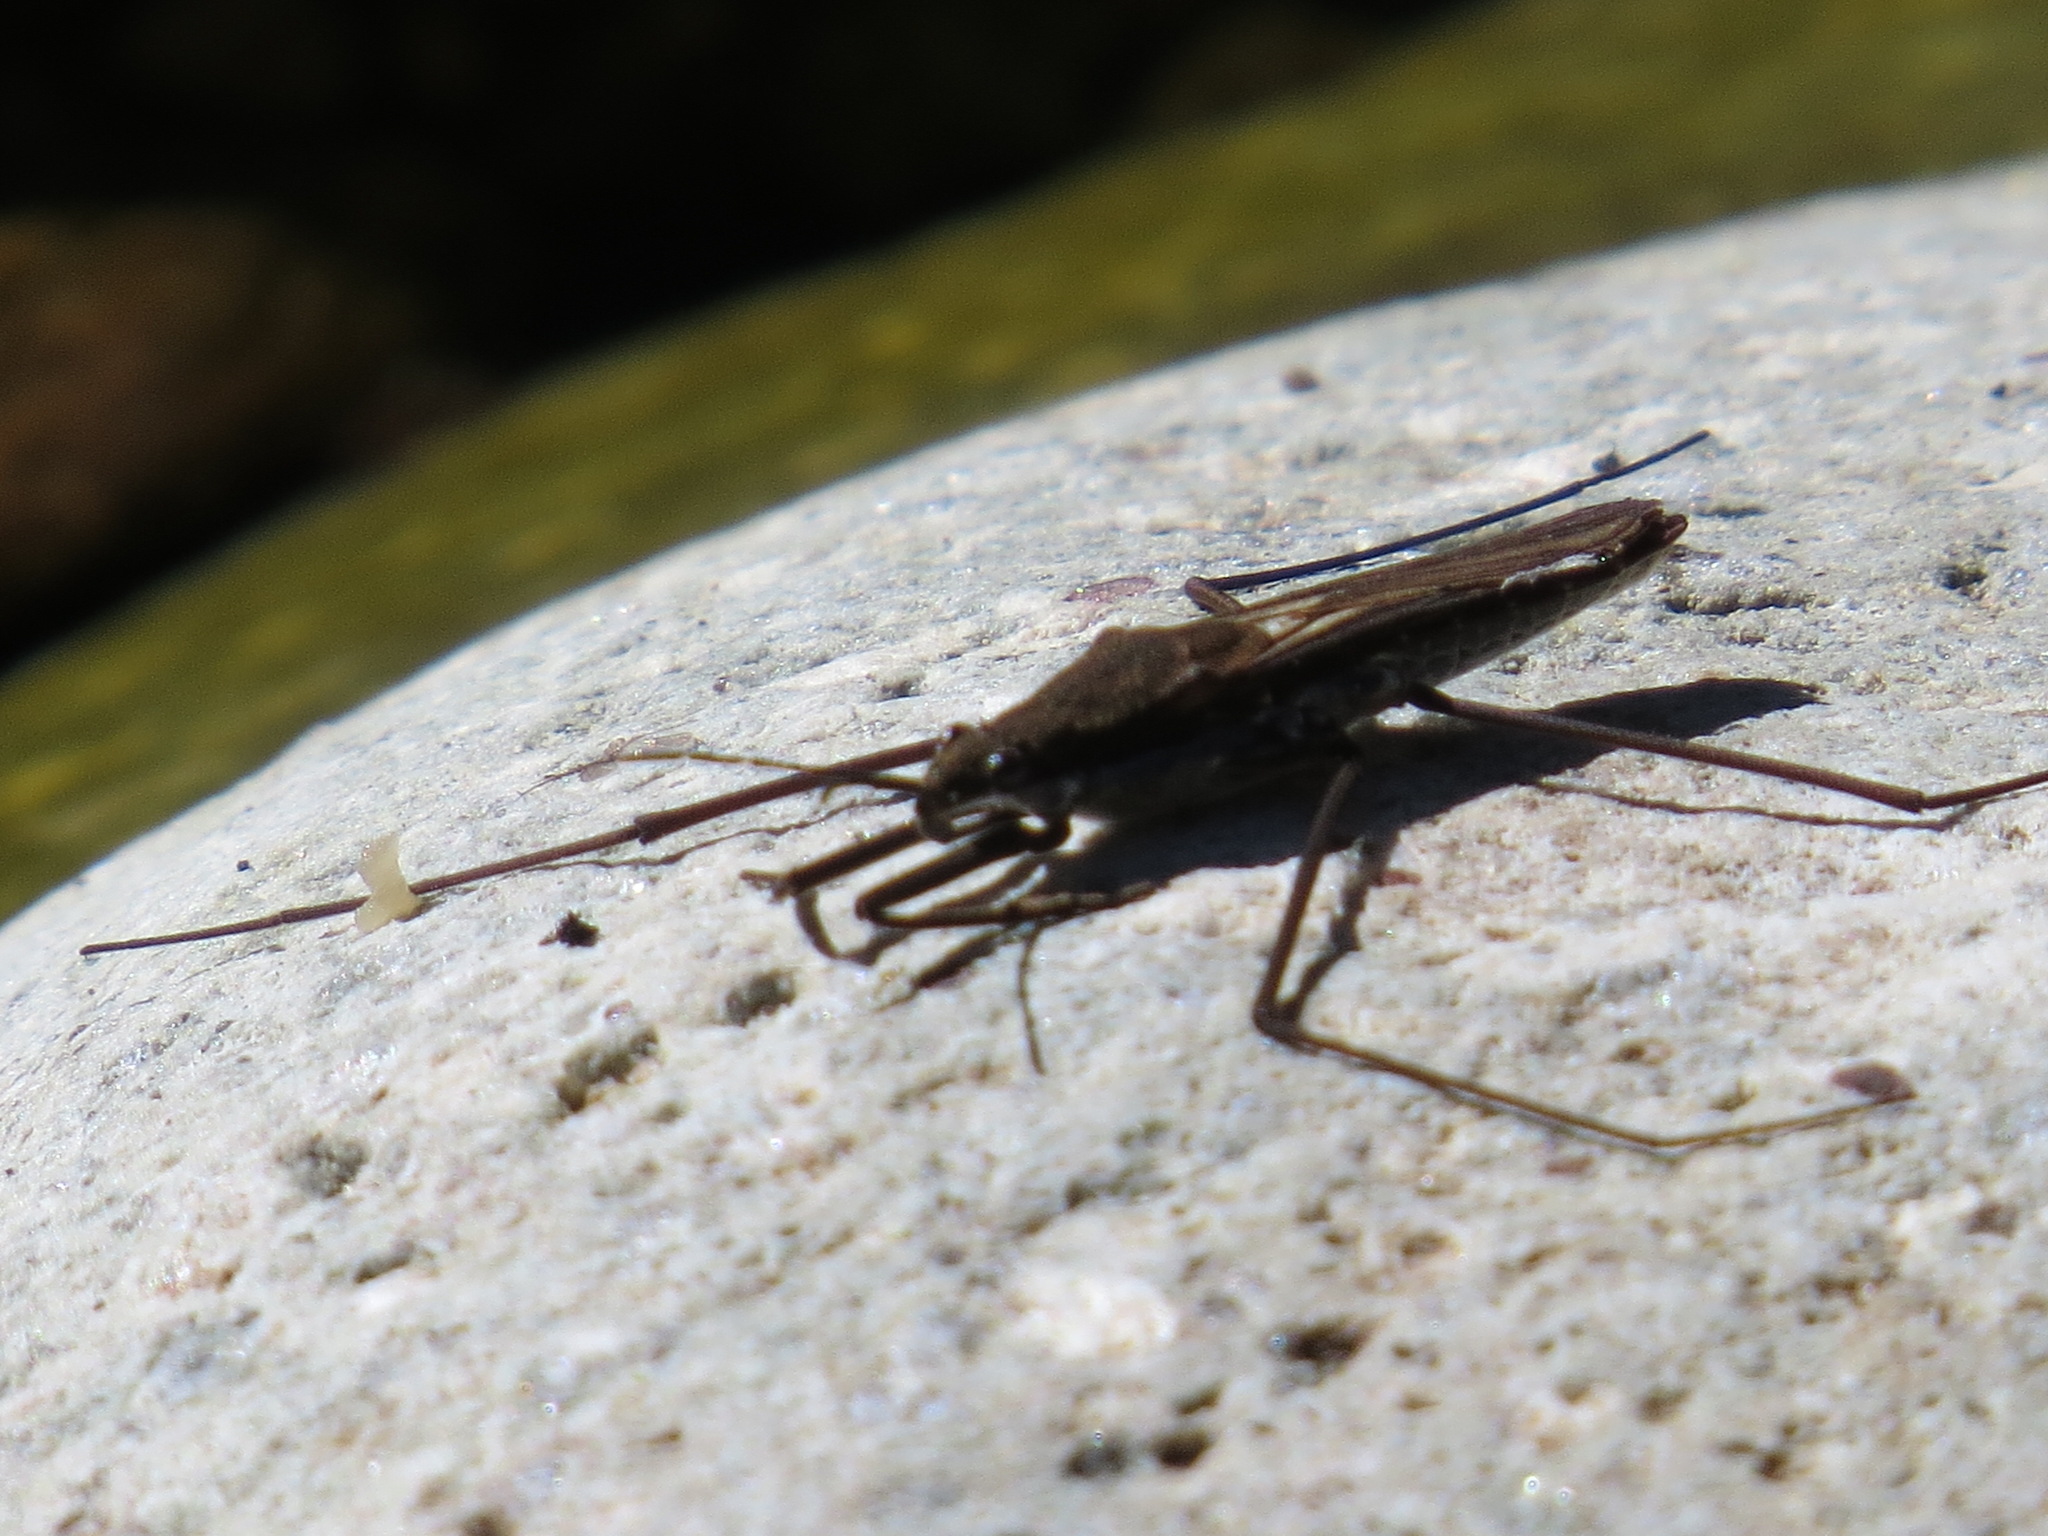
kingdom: Animalia
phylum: Arthropoda
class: Insecta
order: Hemiptera
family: Gerridae
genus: Aquarius
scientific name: Aquarius remigis
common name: Common water strider
